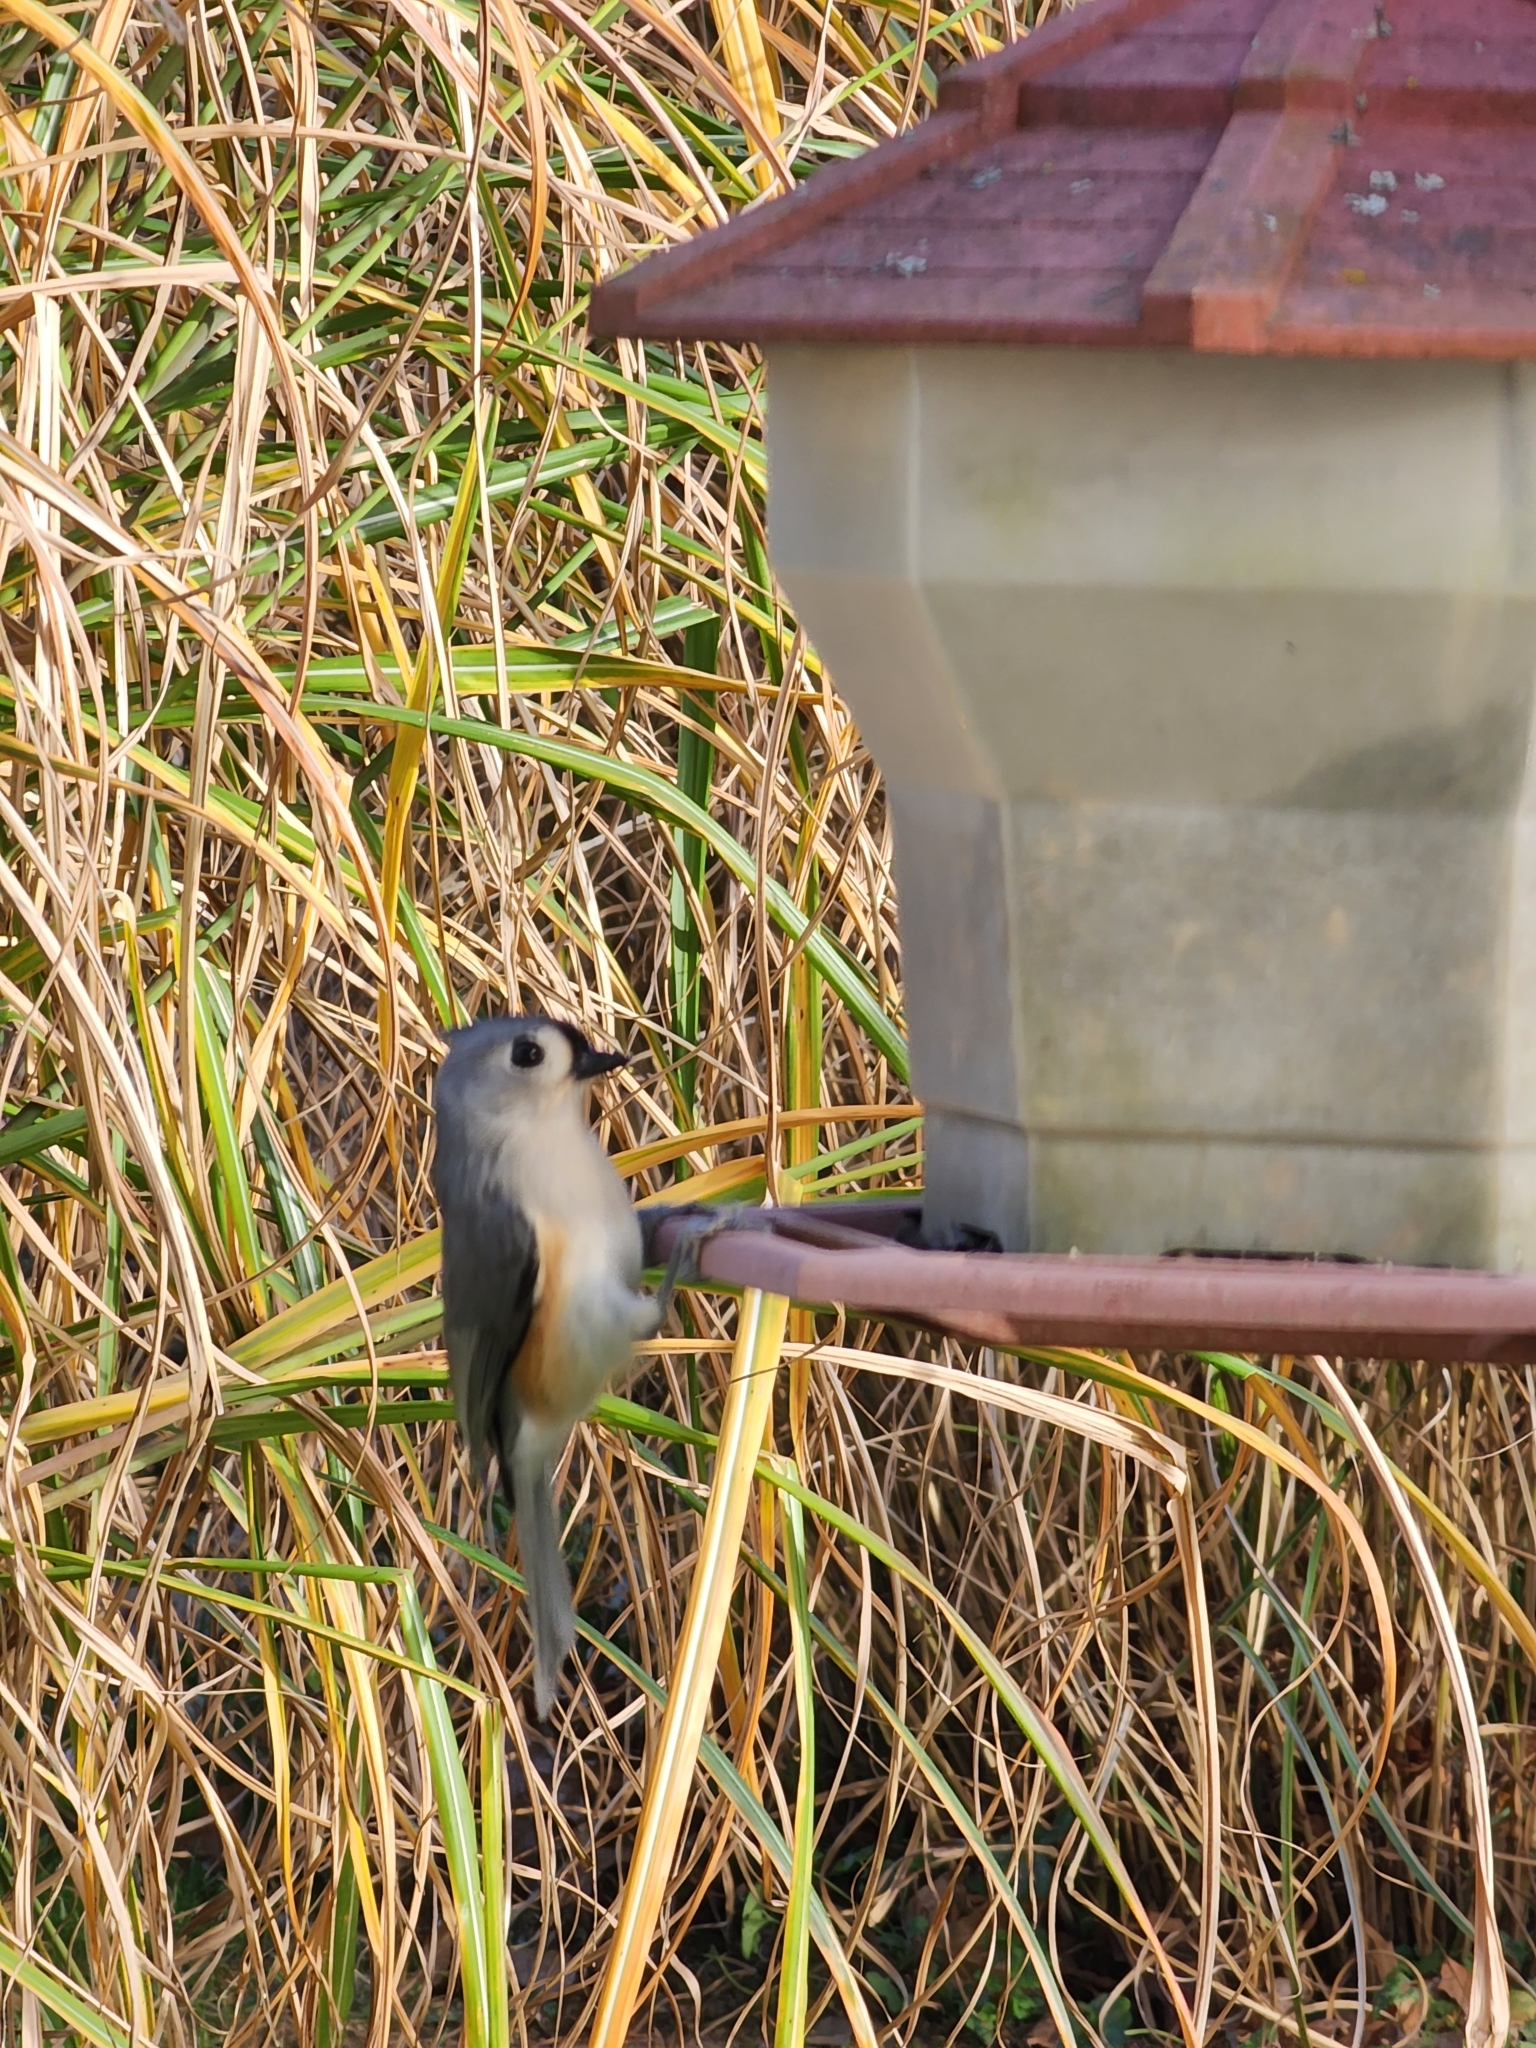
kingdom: Animalia
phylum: Chordata
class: Aves
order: Passeriformes
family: Paridae
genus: Baeolophus
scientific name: Baeolophus bicolor
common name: Tufted titmouse
